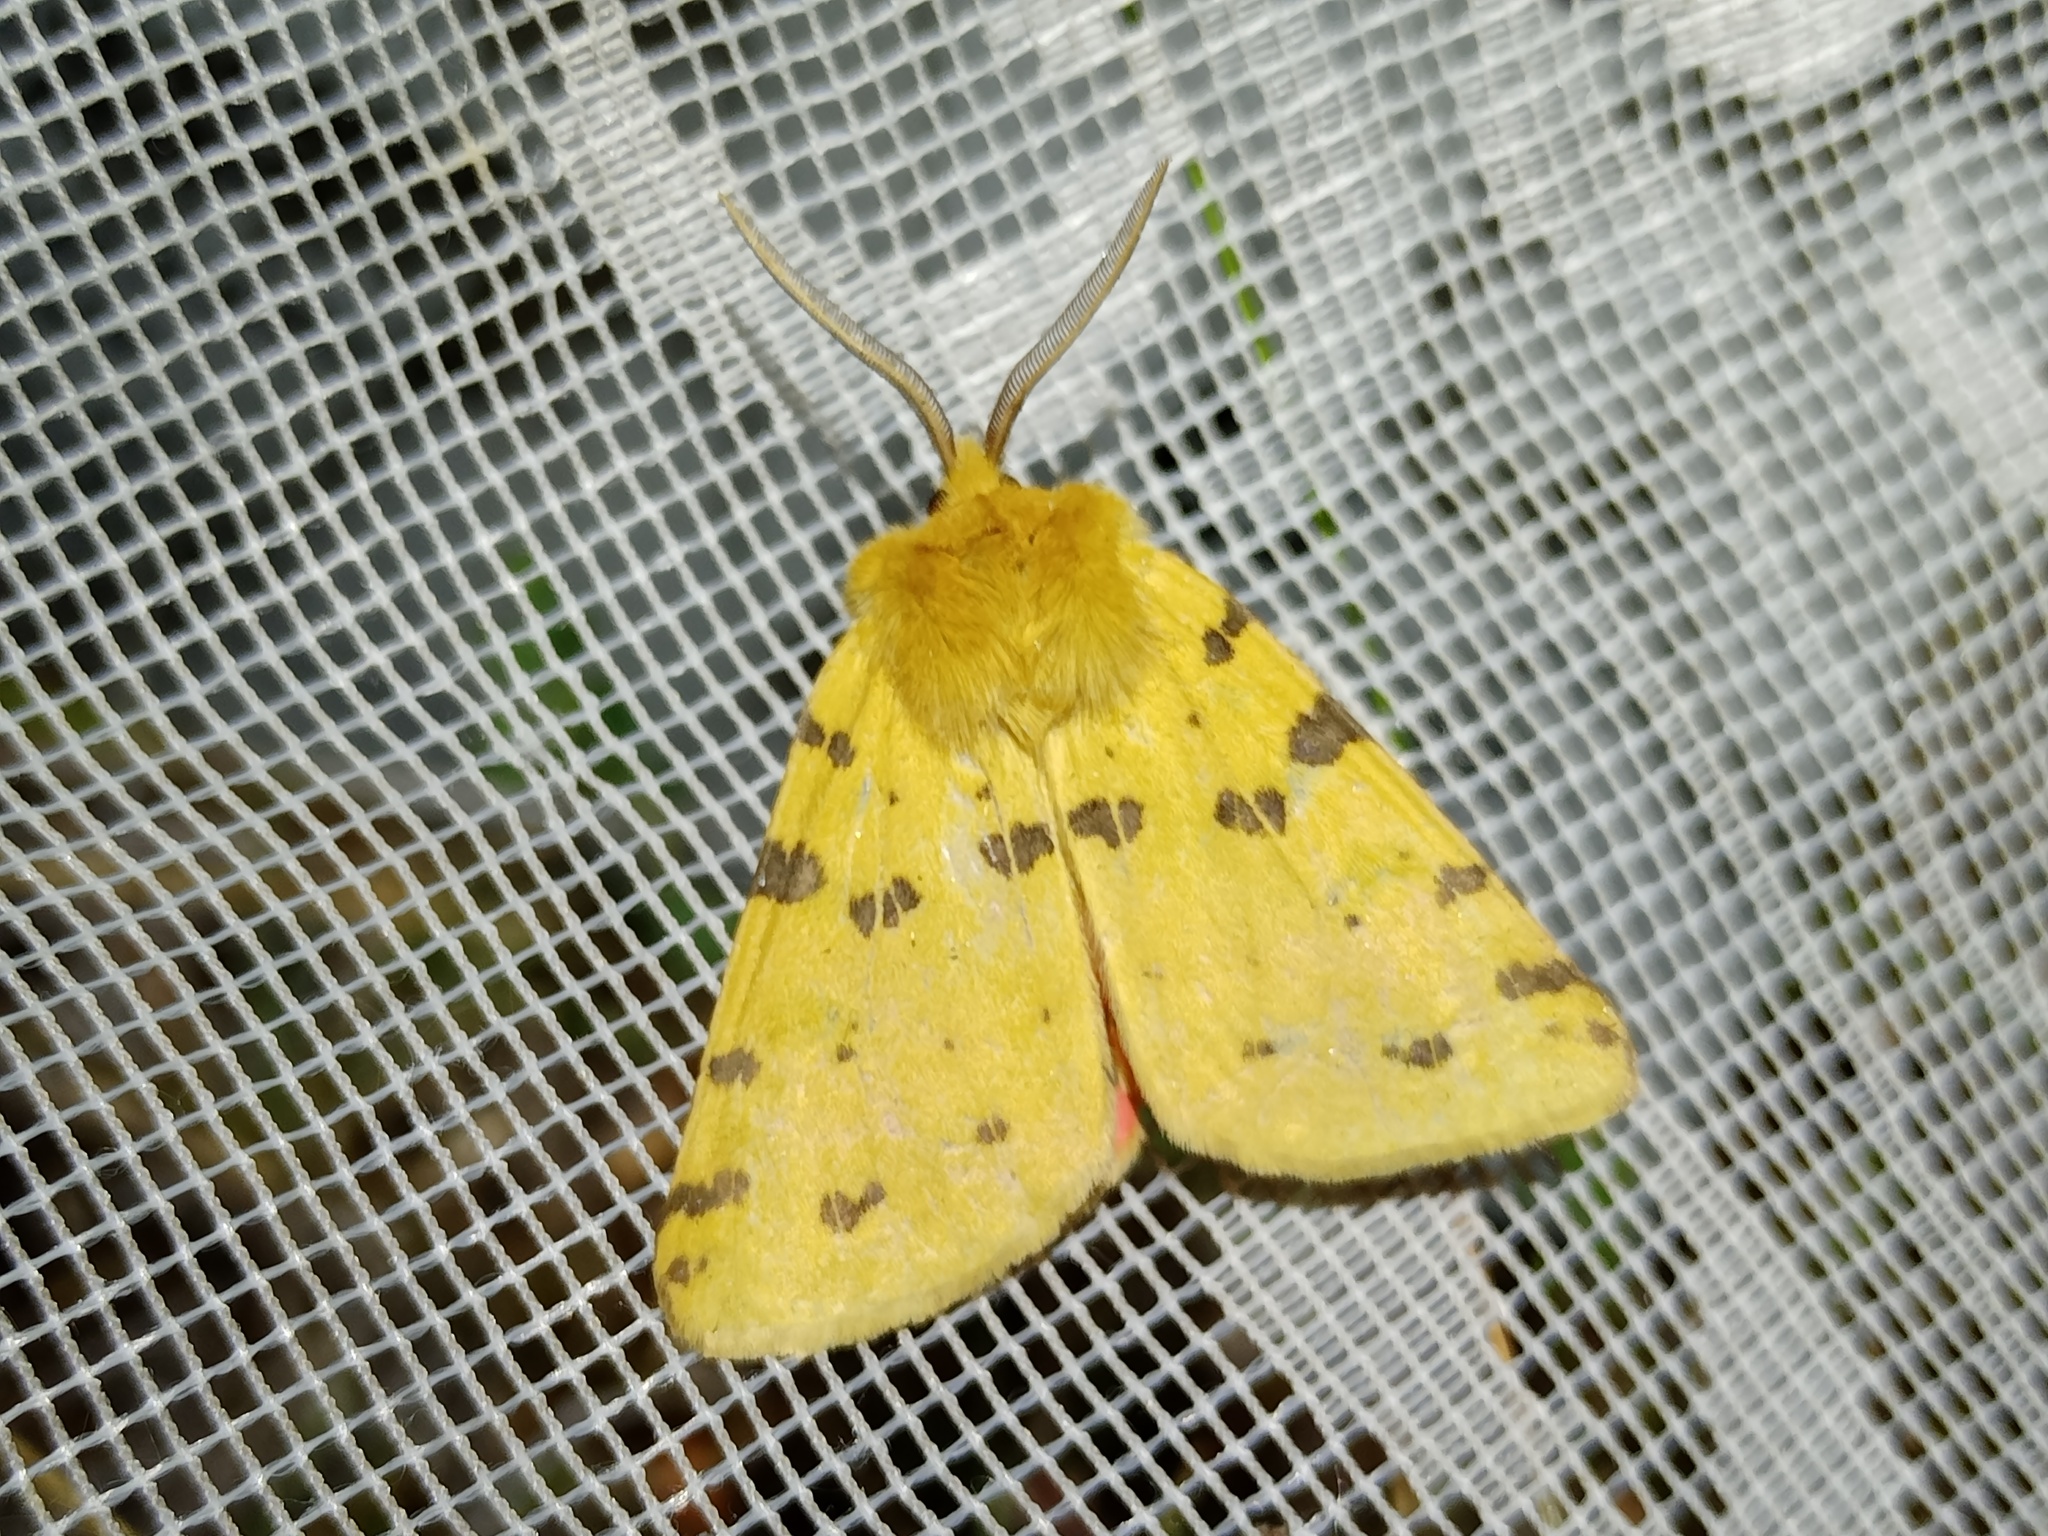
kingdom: Animalia
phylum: Arthropoda
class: Insecta
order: Lepidoptera
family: Erebidae
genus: Rhyparia
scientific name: Rhyparia purpurata
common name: Purple tiger
